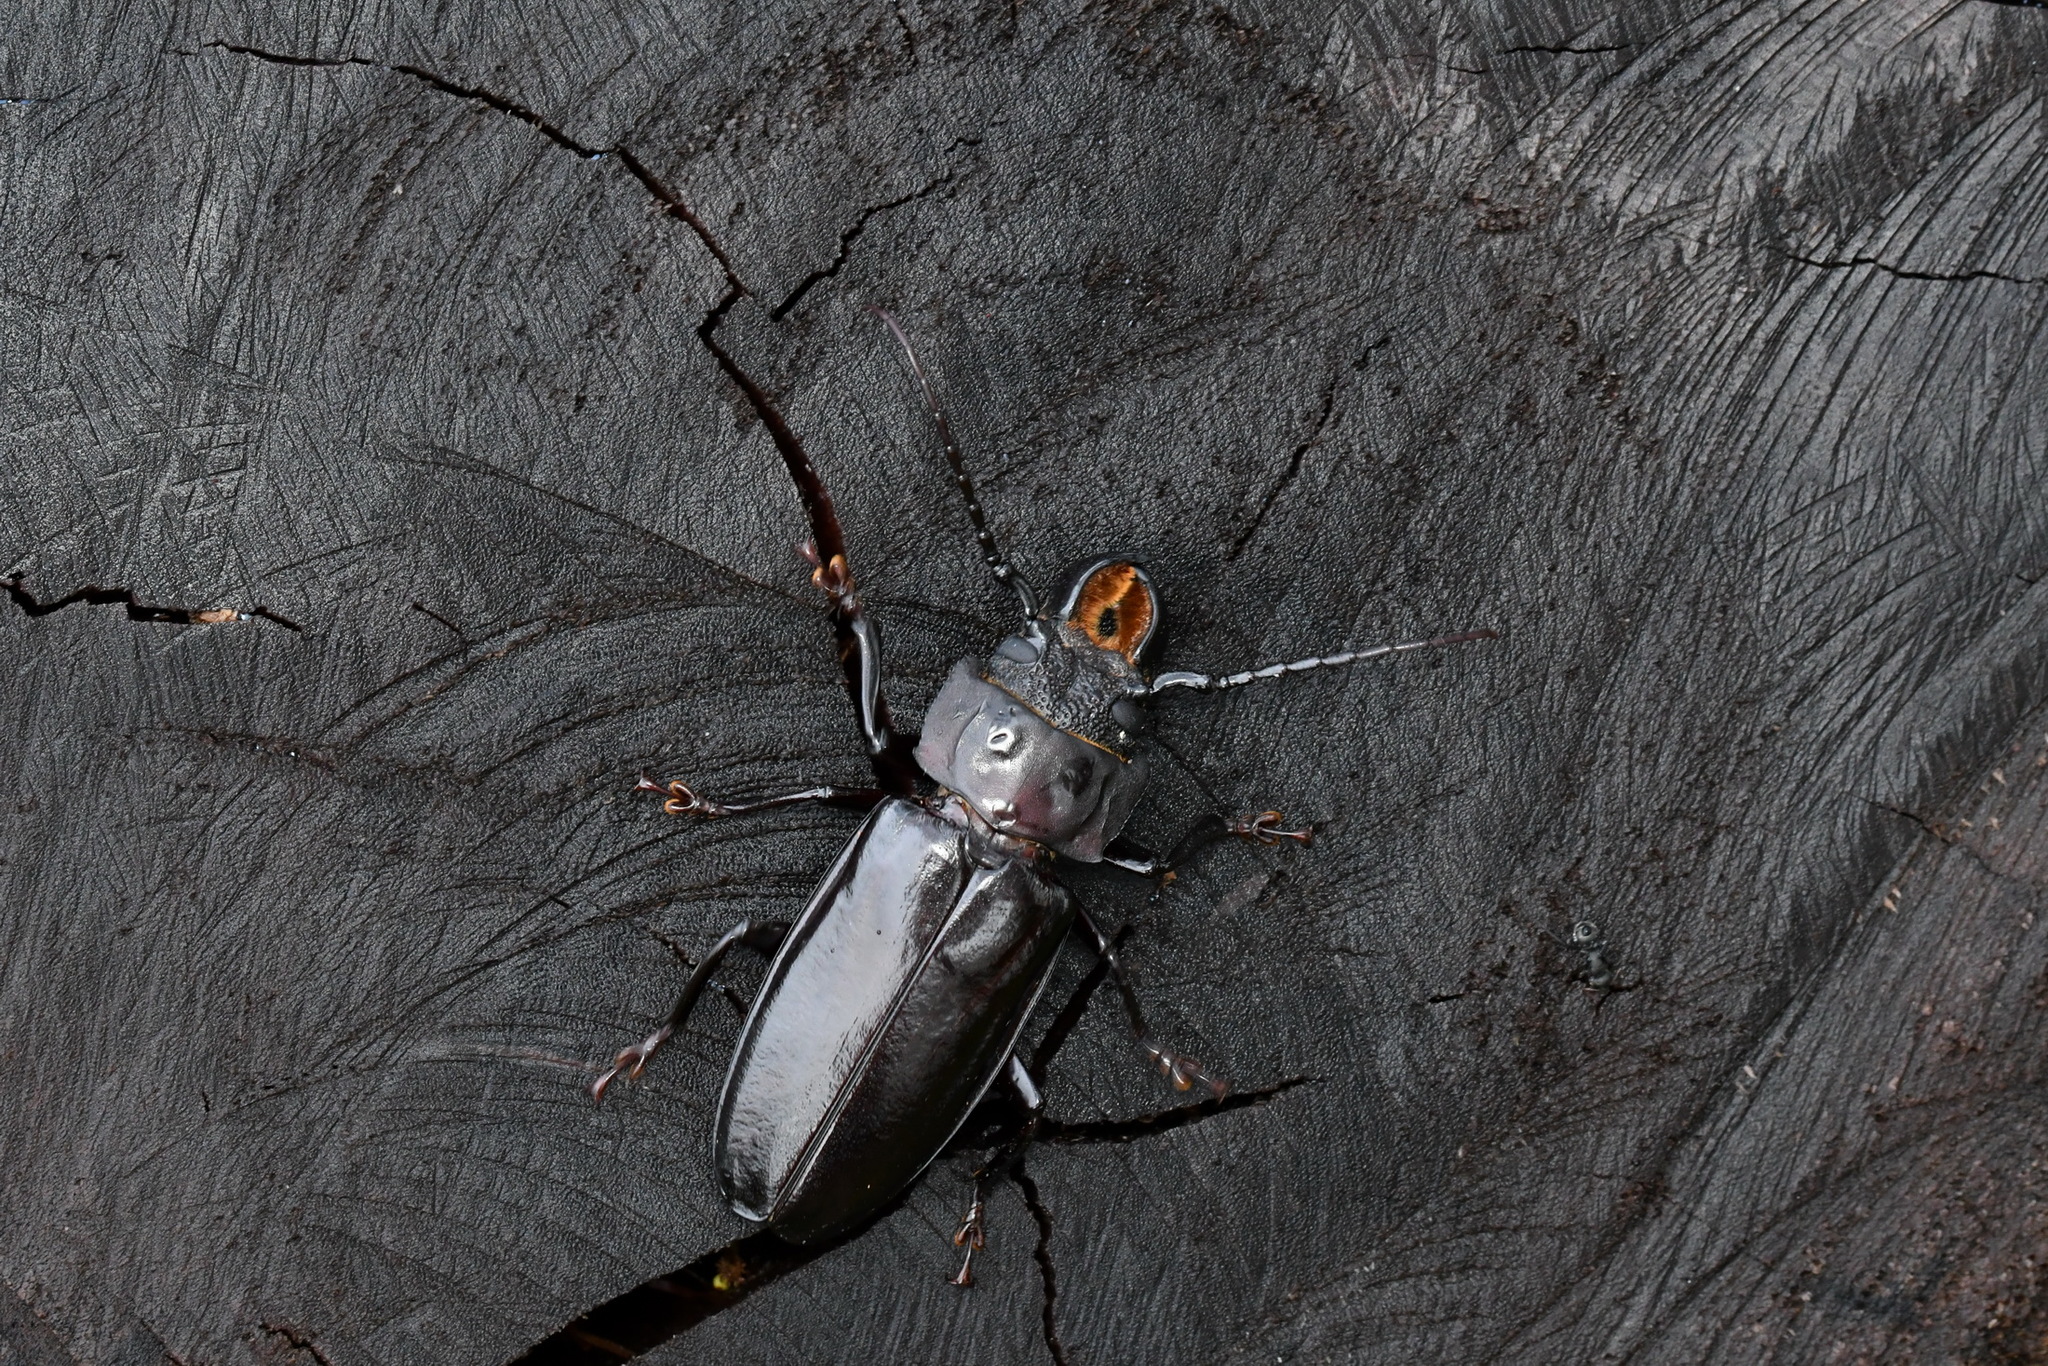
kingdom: Animalia
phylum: Arthropoda
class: Insecta
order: Coleoptera
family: Cerambycidae
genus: Mallodon
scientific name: Mallodon dasystomum
